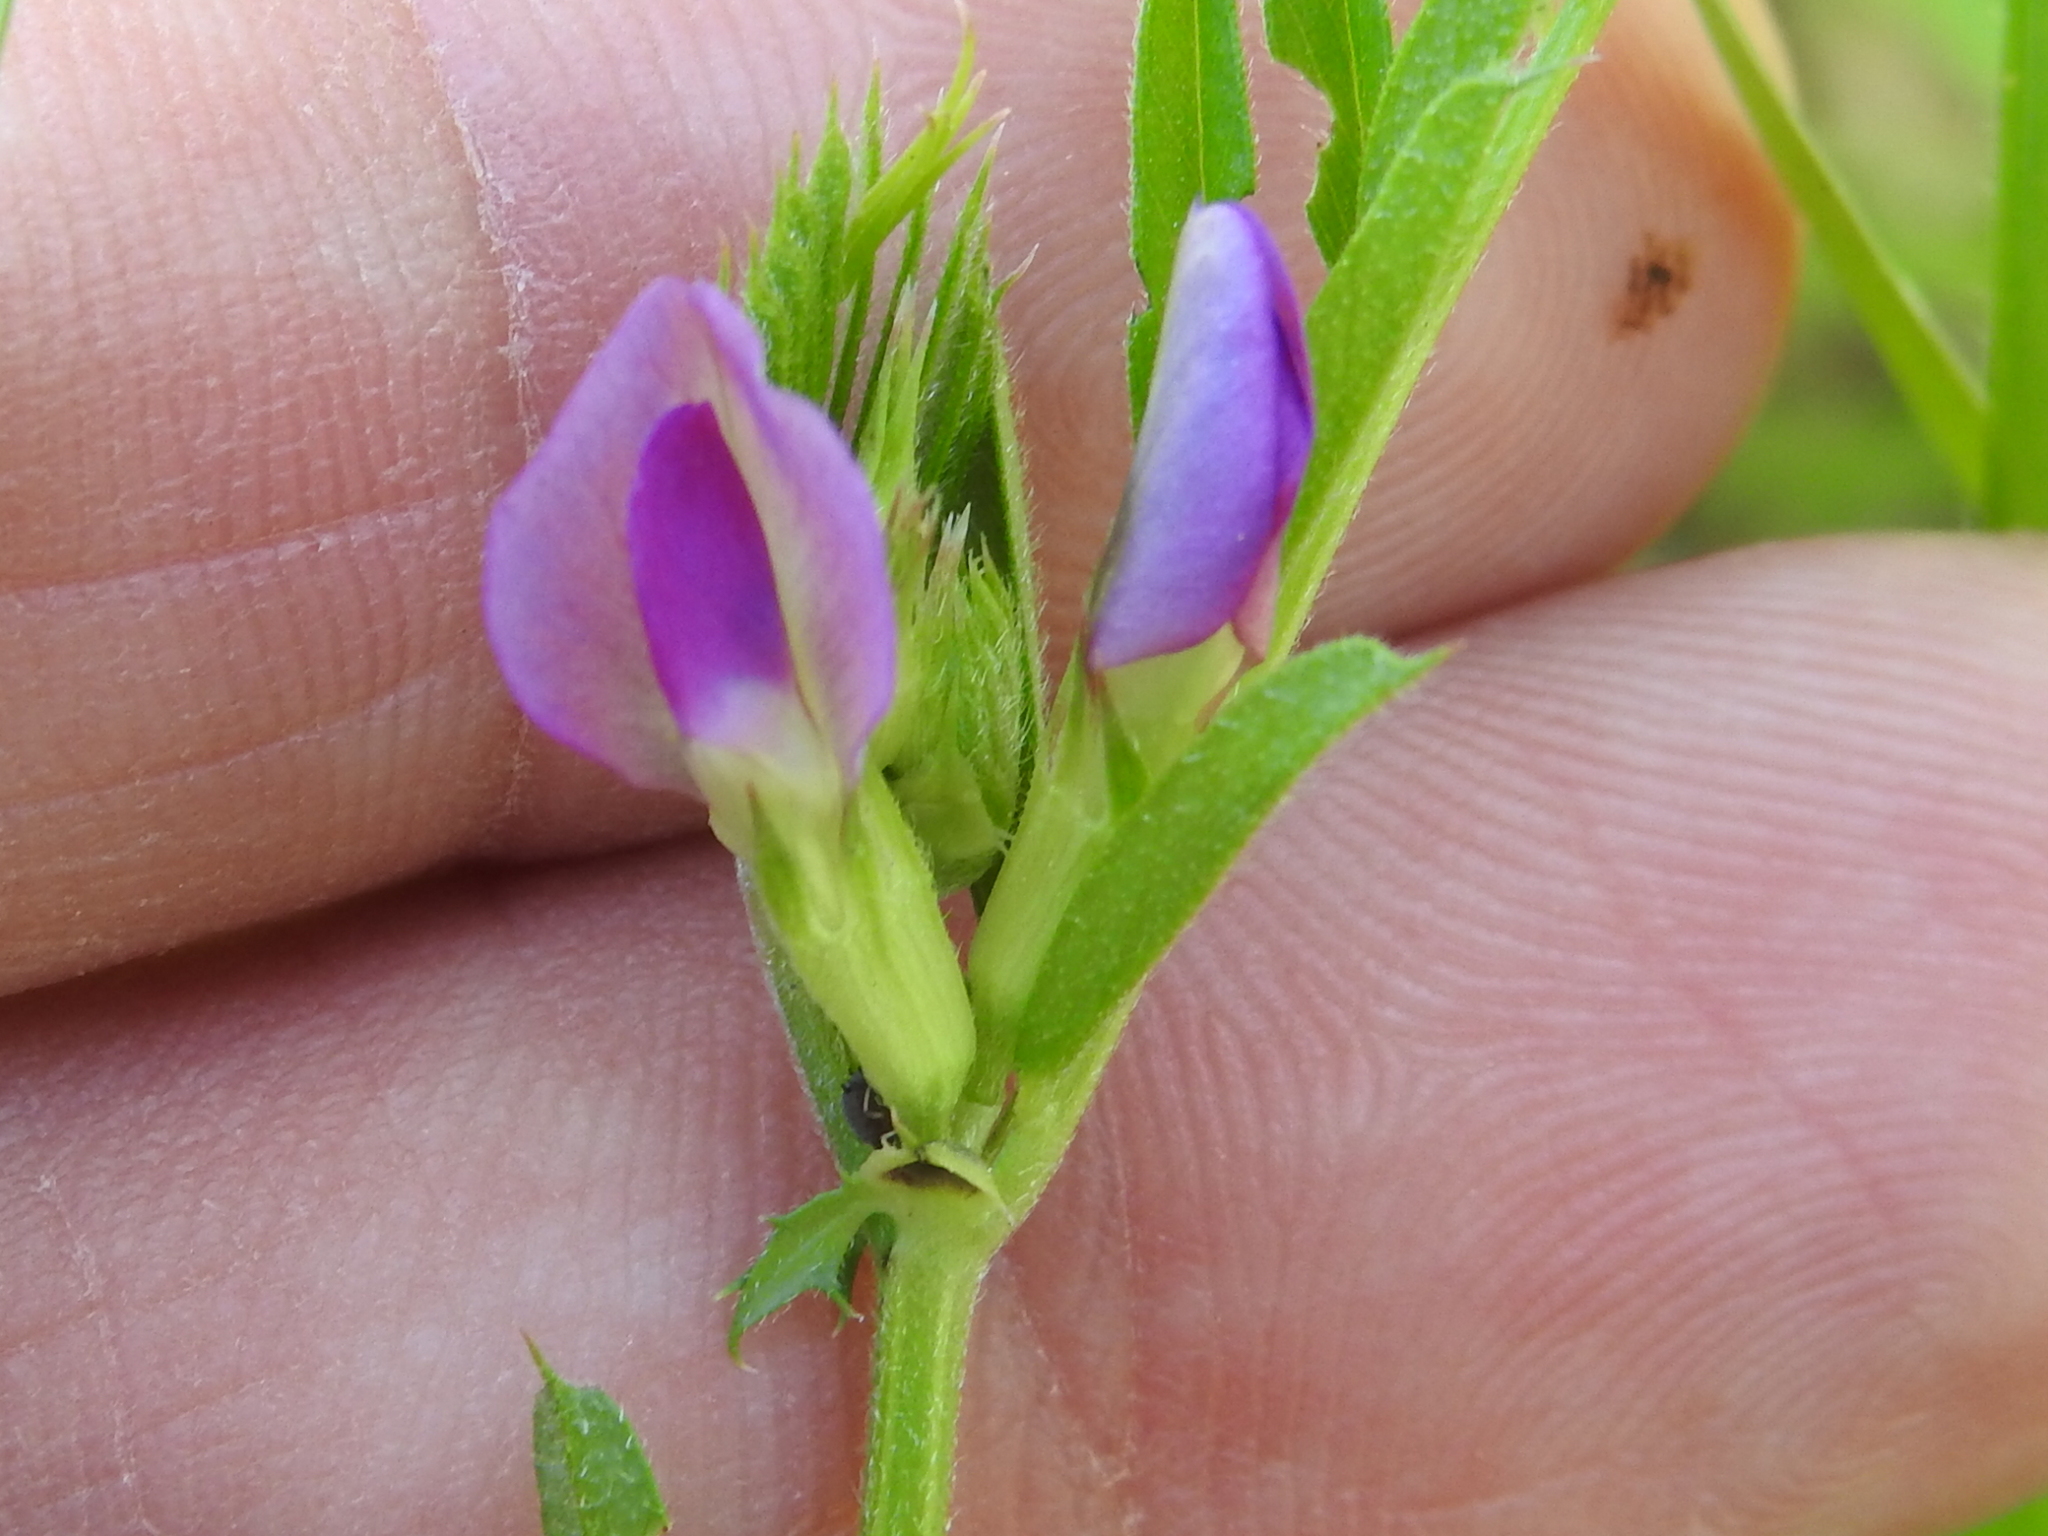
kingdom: Plantae
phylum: Tracheophyta
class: Magnoliopsida
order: Fabales
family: Fabaceae
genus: Vicia
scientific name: Vicia sativa
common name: Garden vetch
